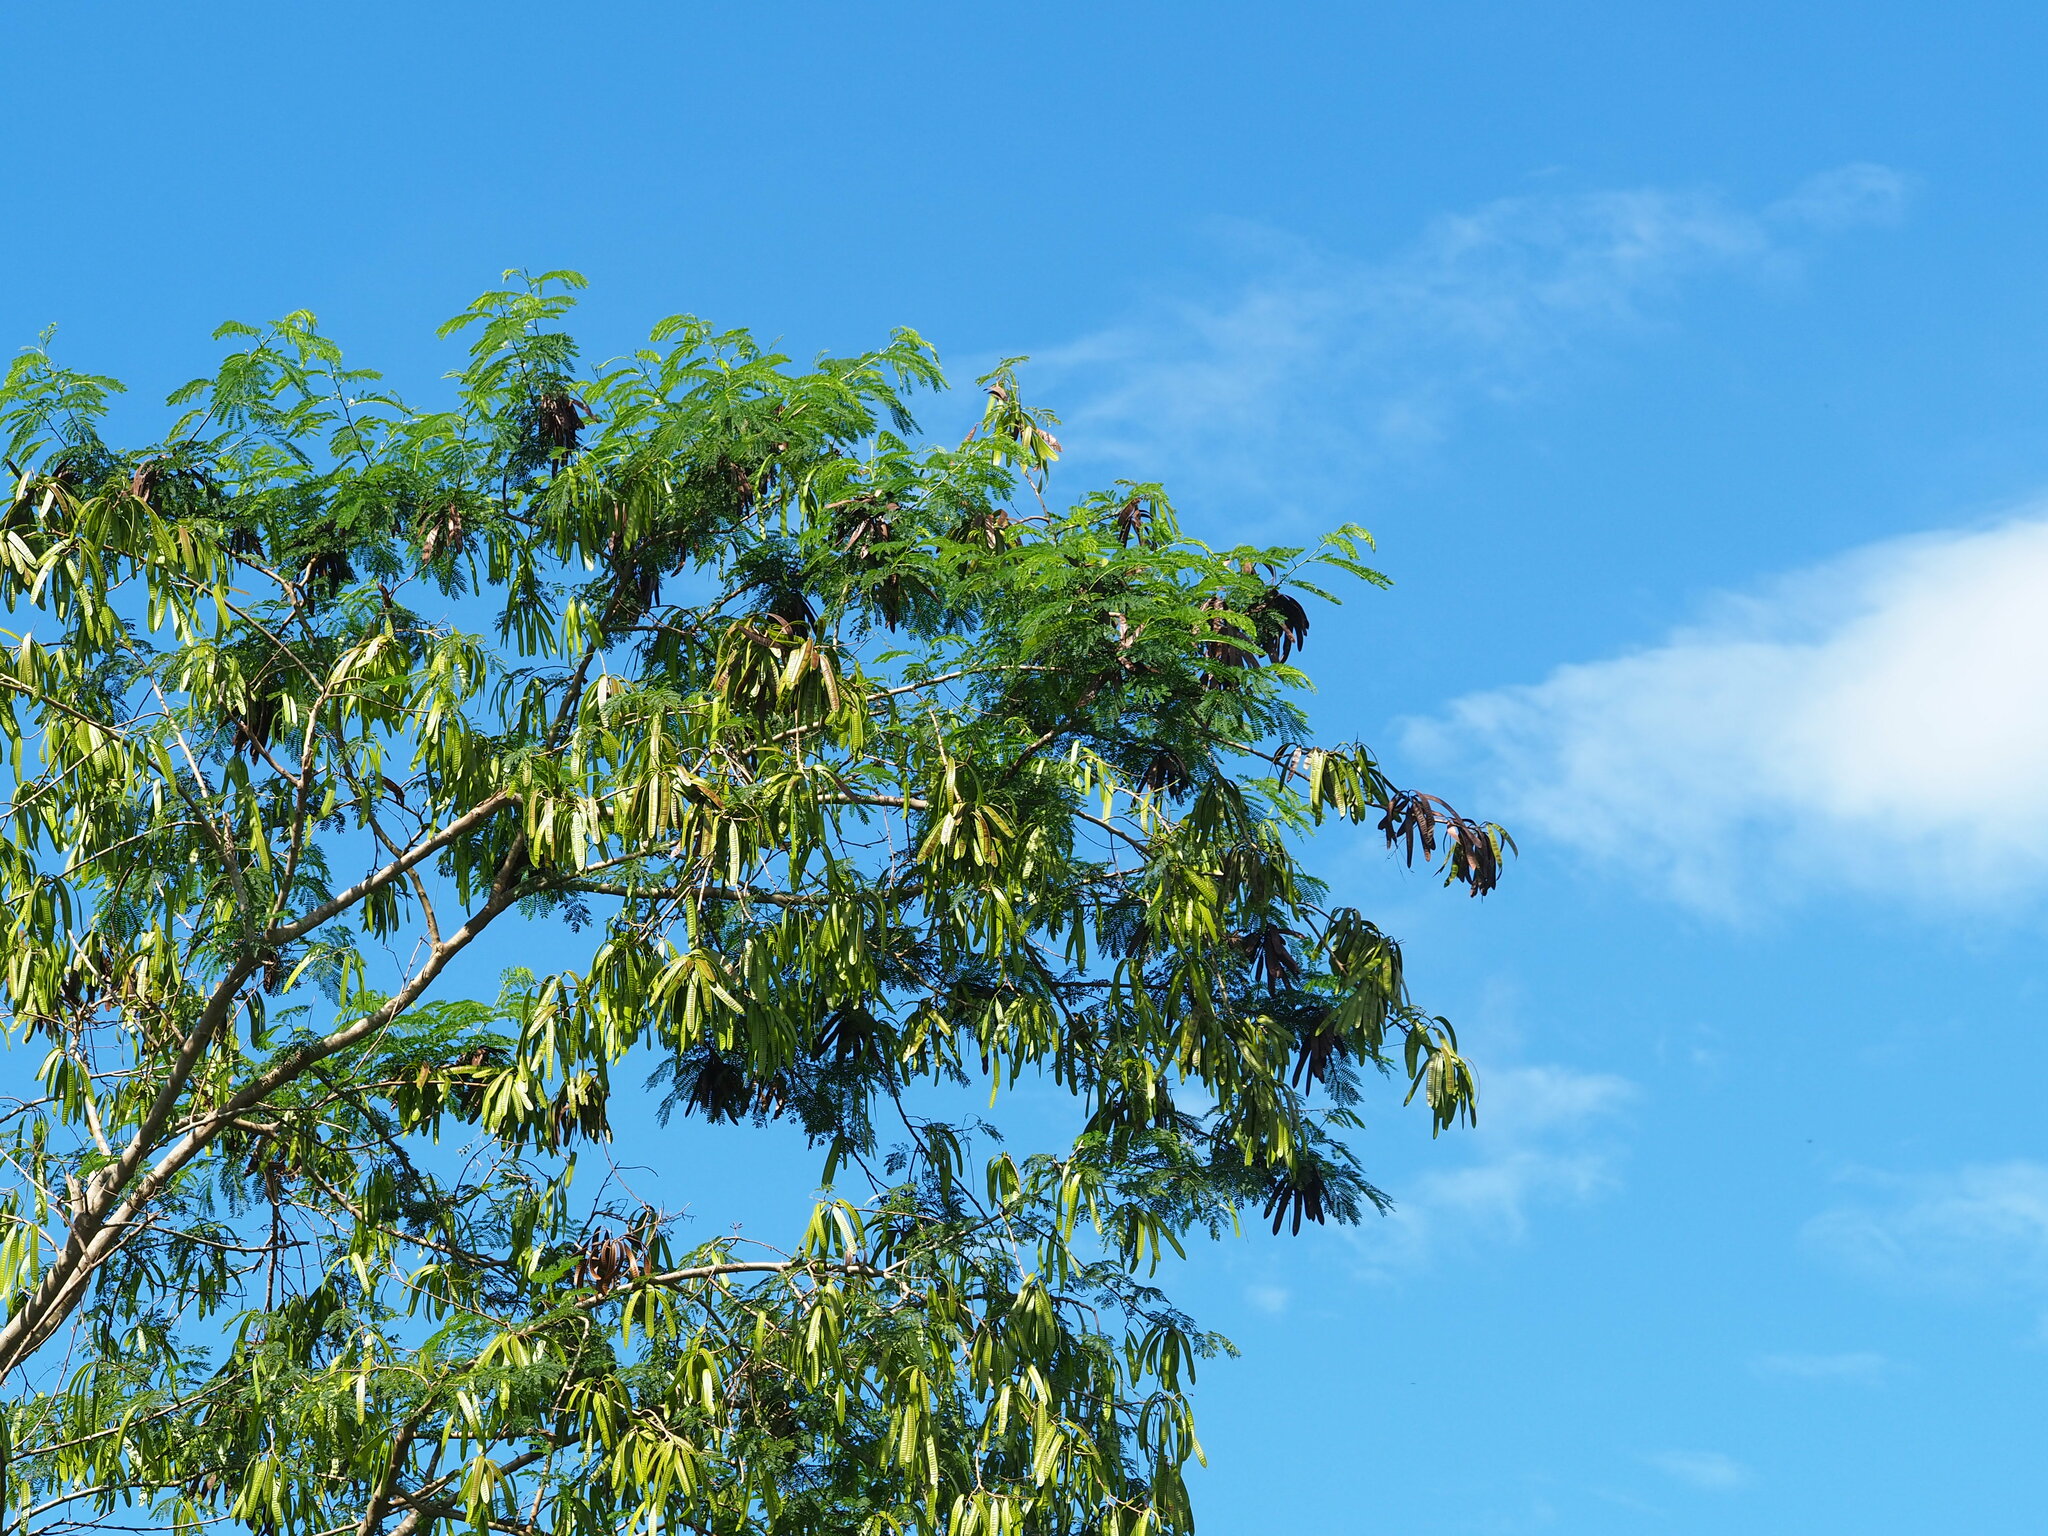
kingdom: Plantae
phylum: Tracheophyta
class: Magnoliopsida
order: Fabales
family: Fabaceae
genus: Leucaena
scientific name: Leucaena leucocephala
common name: White leadtree
